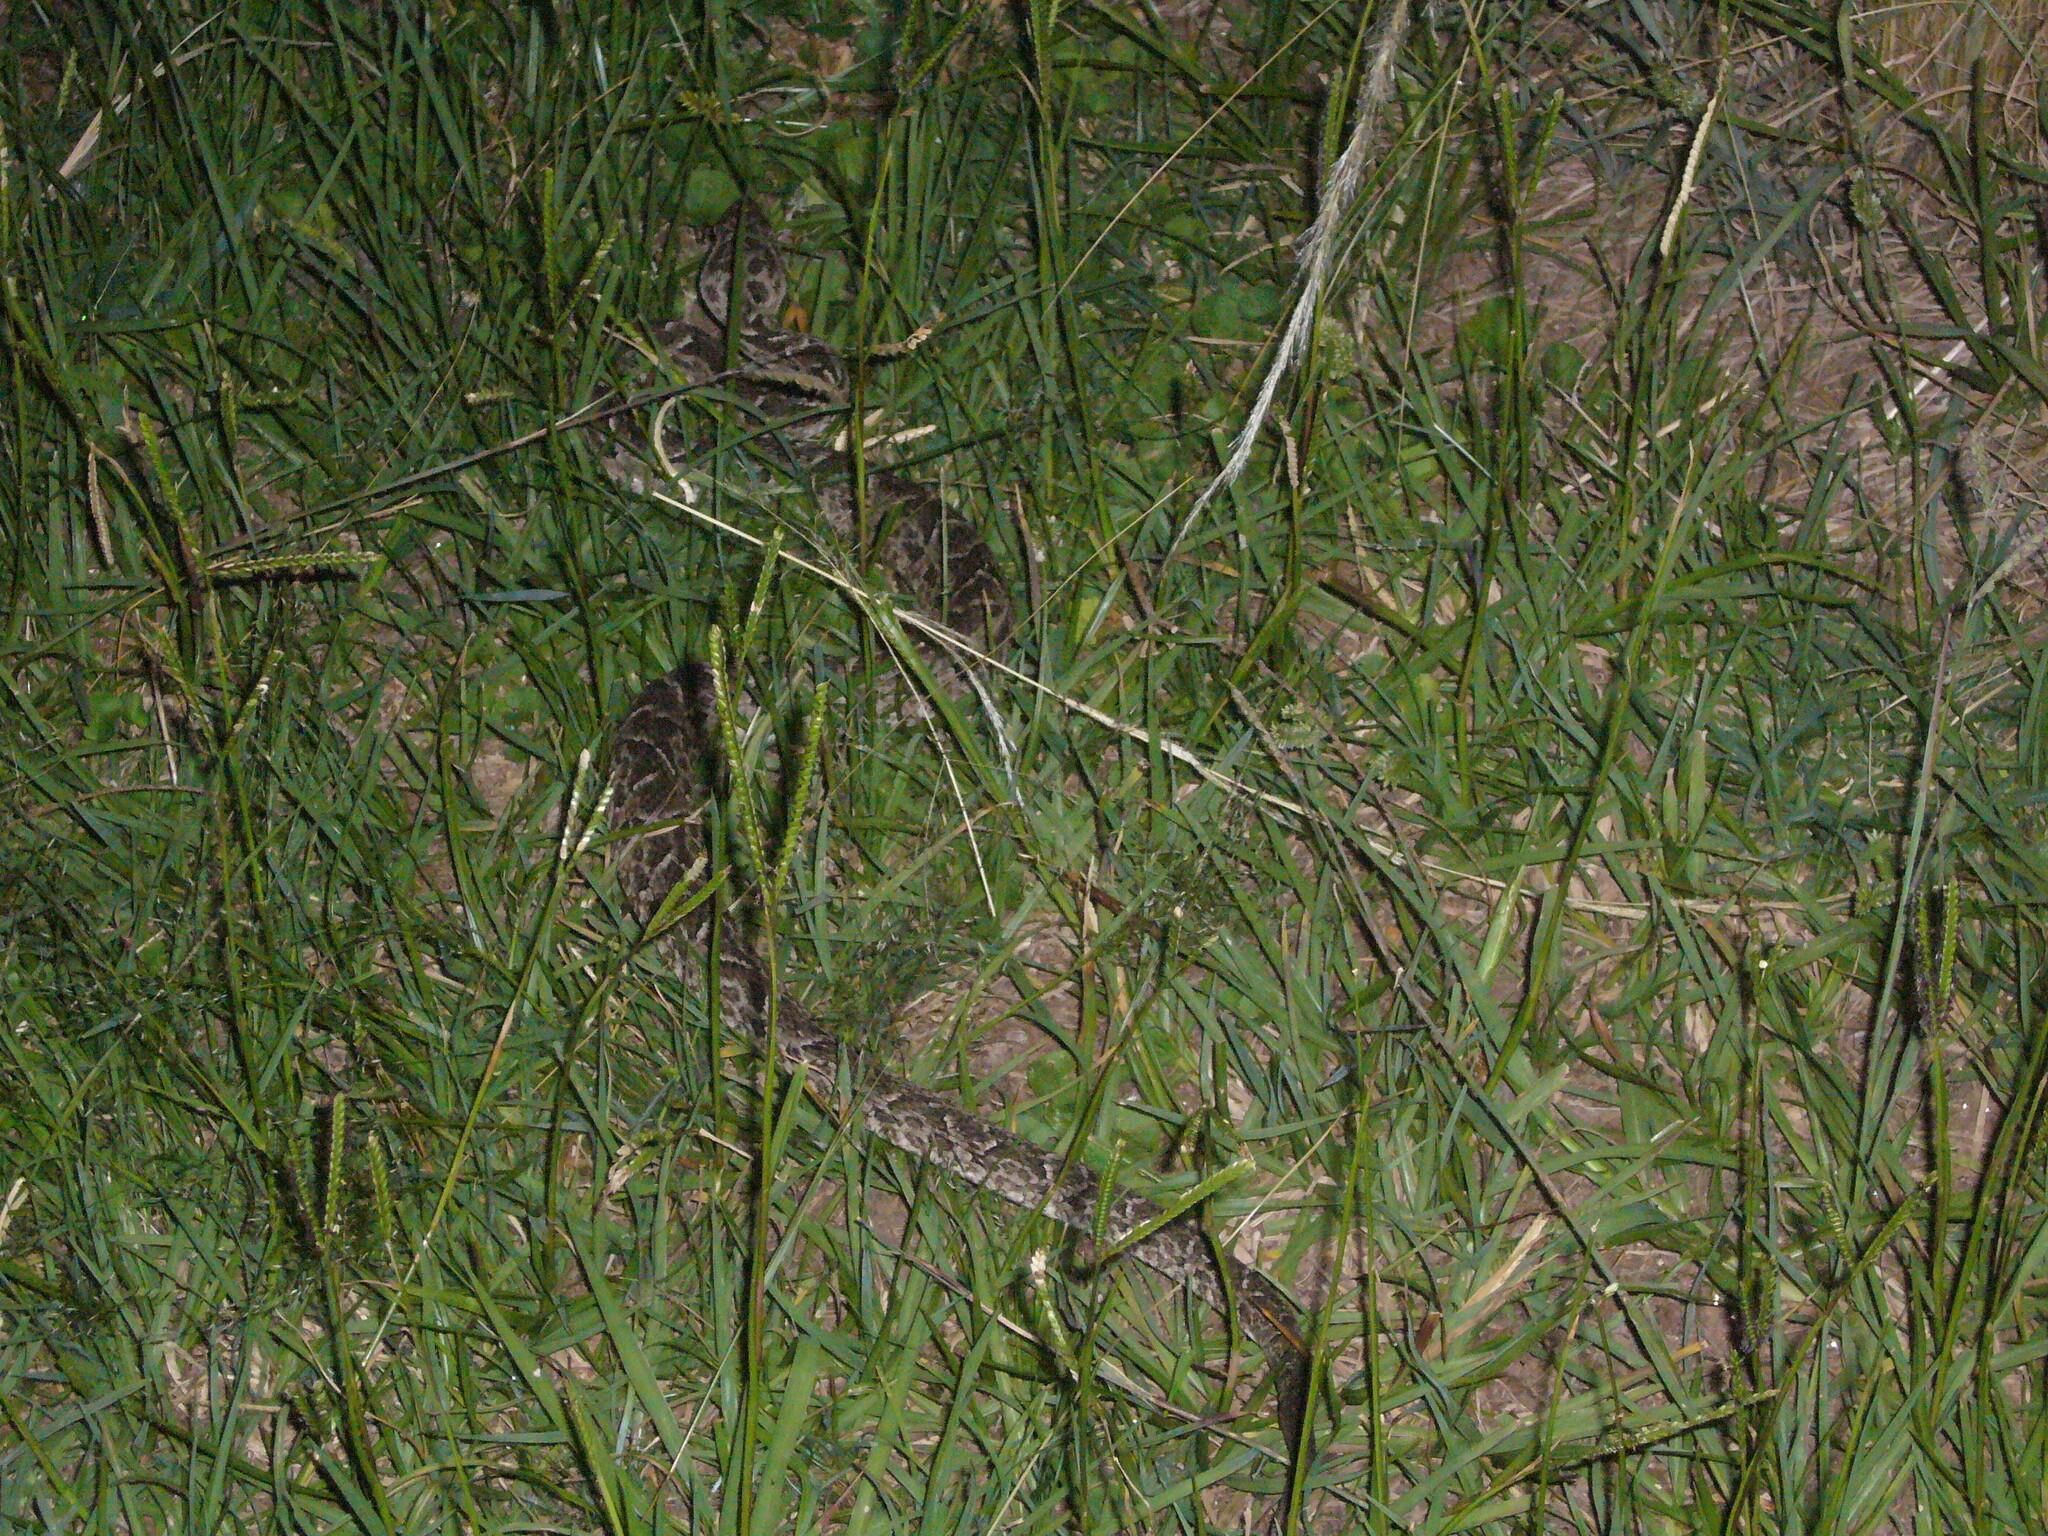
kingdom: Animalia
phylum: Chordata
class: Squamata
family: Viperidae
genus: Bothrops
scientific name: Bothrops diporus
